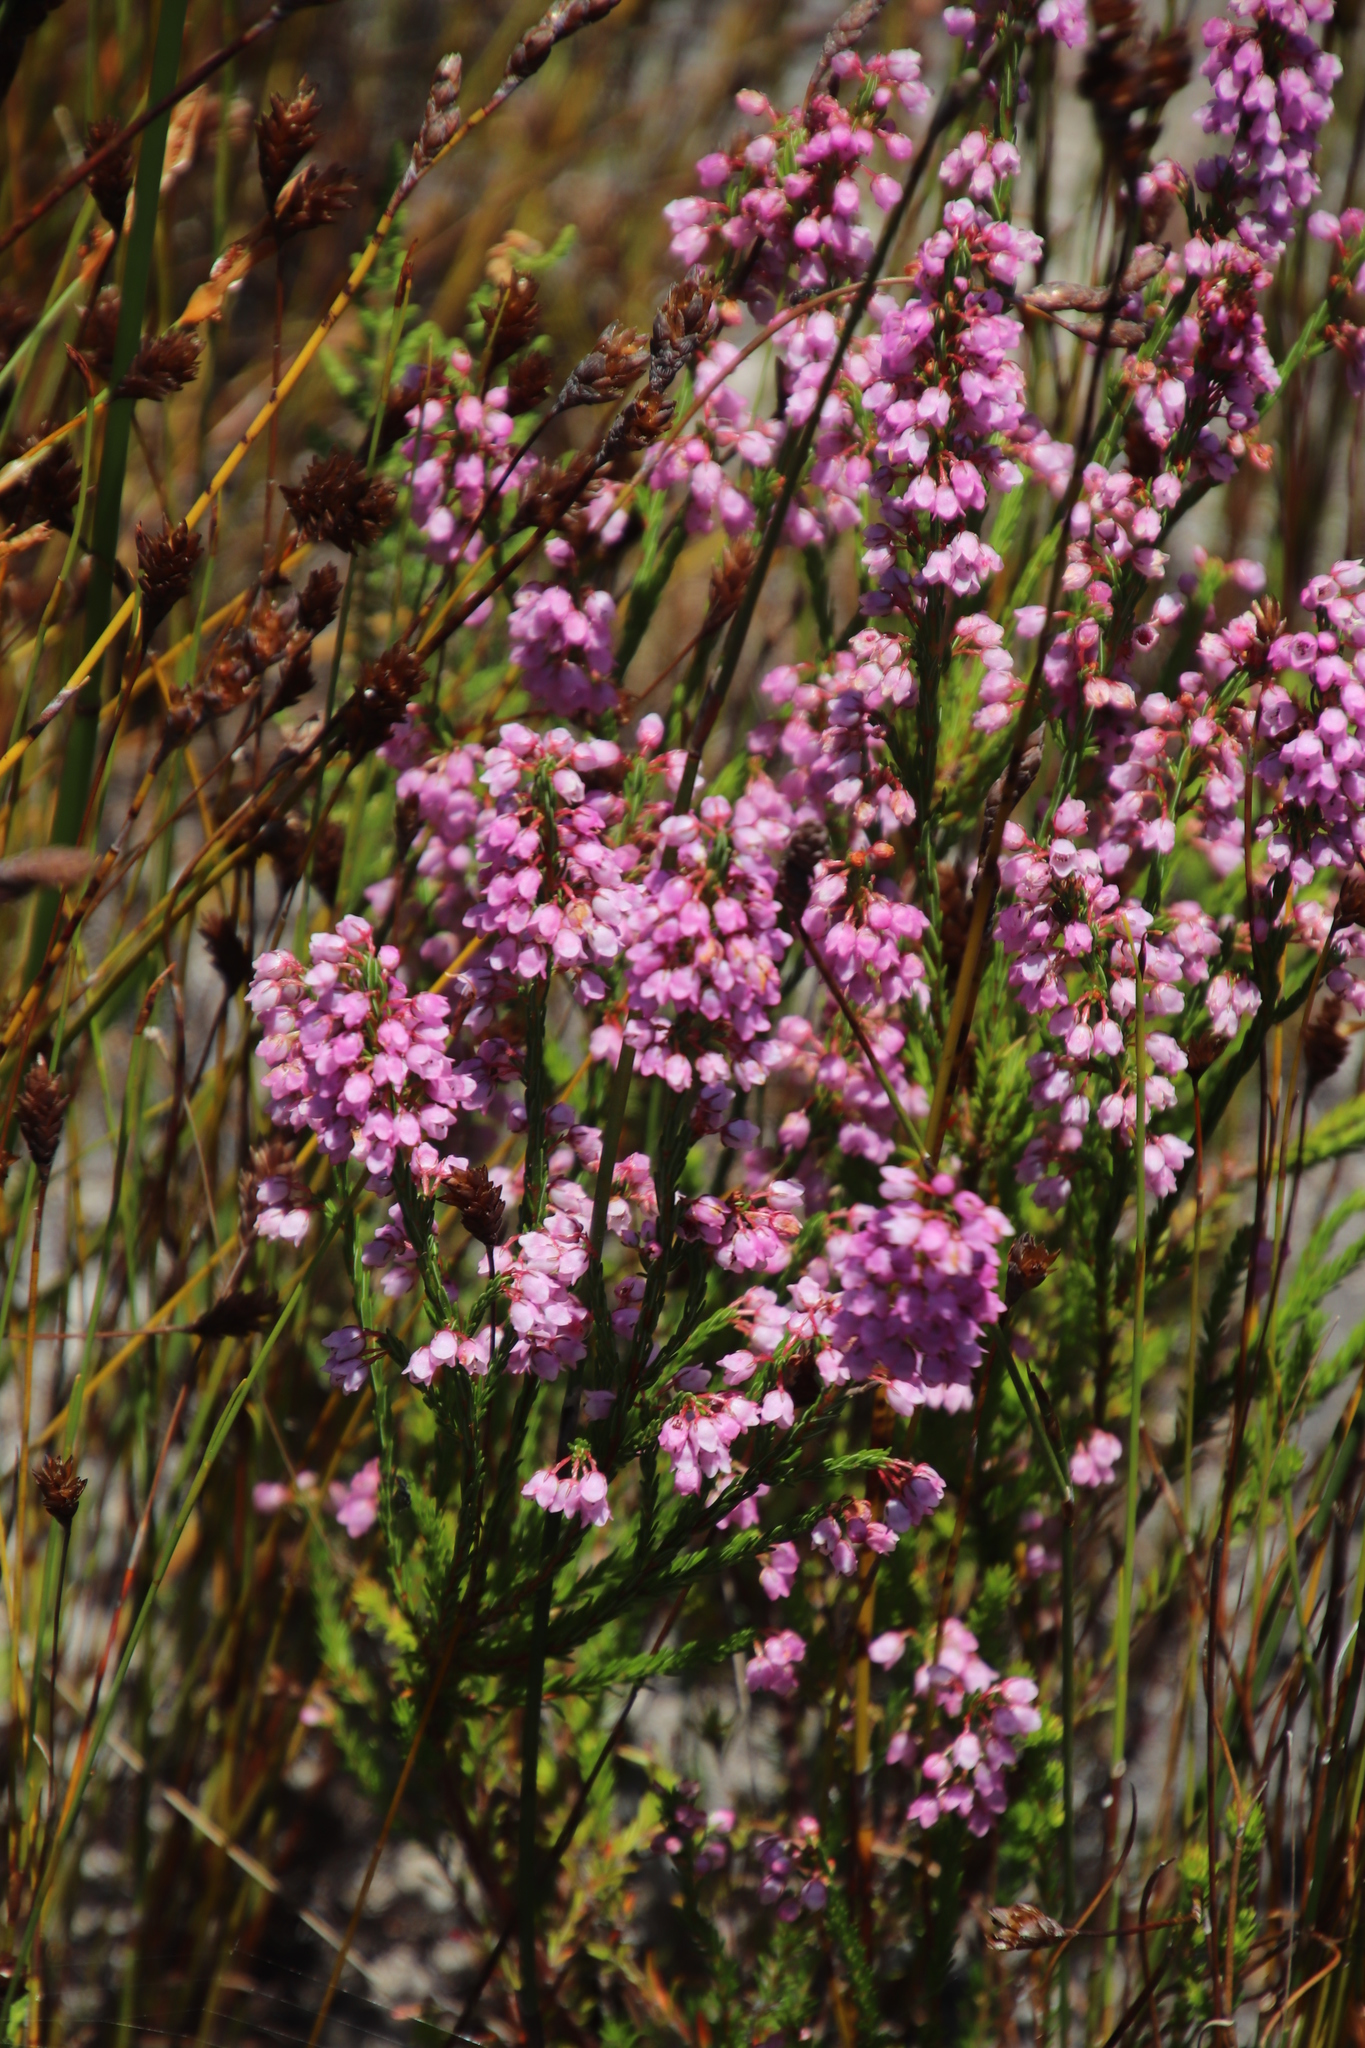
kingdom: Plantae
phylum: Tracheophyta
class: Magnoliopsida
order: Ericales
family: Ericaceae
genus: Erica
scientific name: Erica capensis
